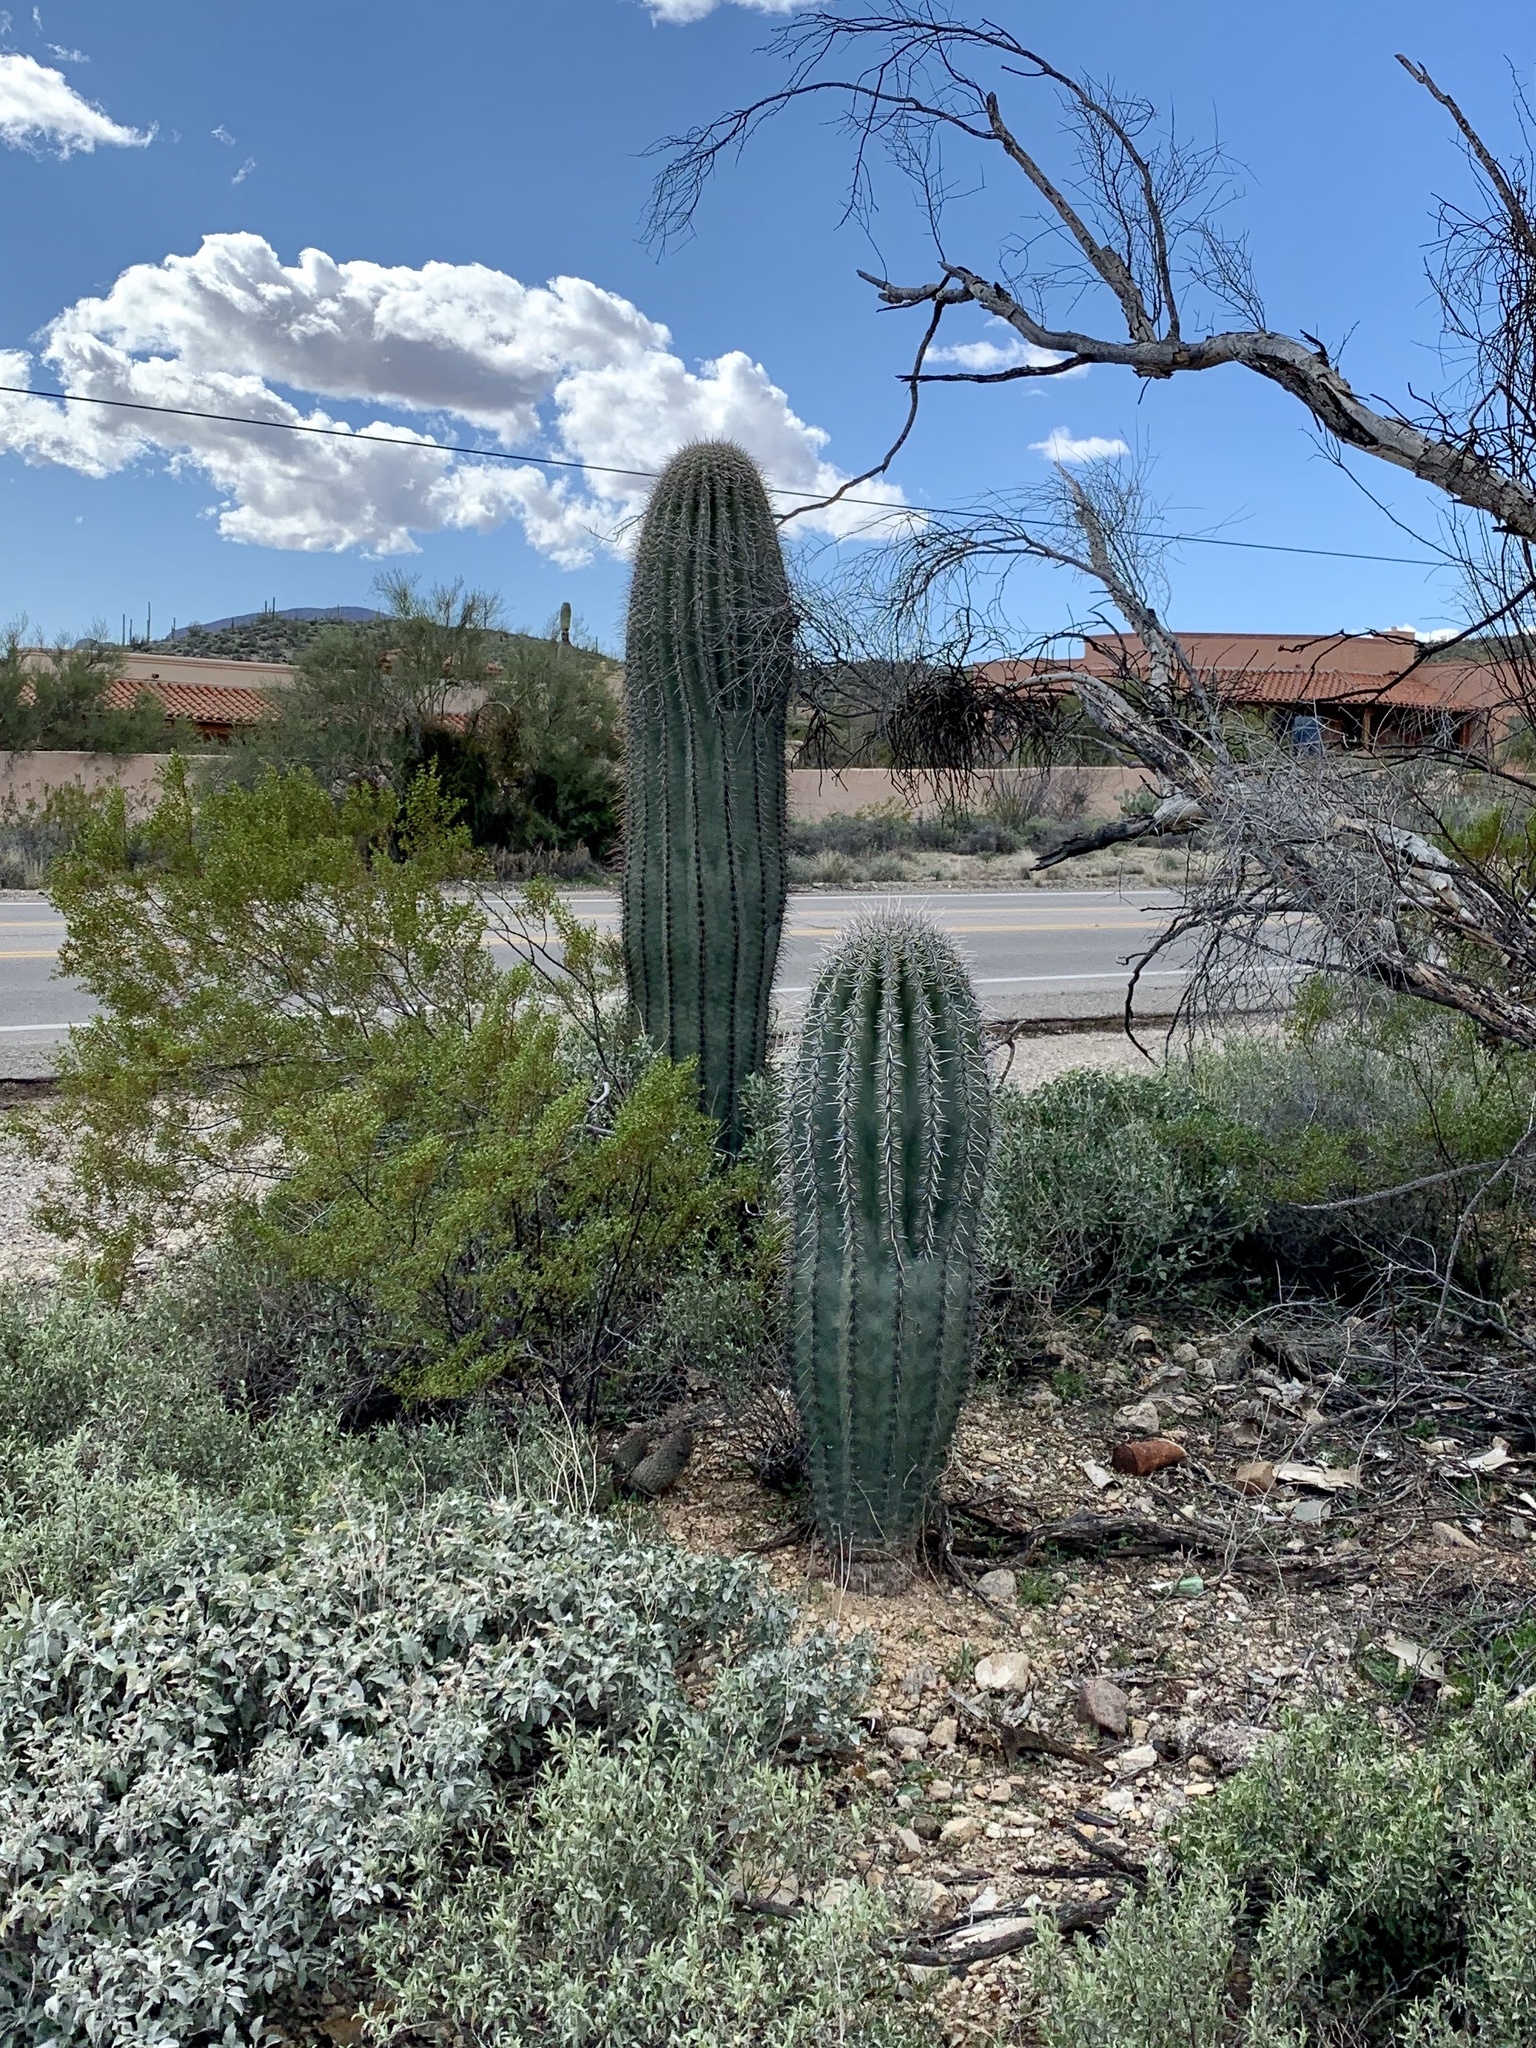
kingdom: Plantae
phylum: Tracheophyta
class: Magnoliopsida
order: Caryophyllales
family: Cactaceae
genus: Carnegiea
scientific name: Carnegiea gigantea
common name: Saguaro
